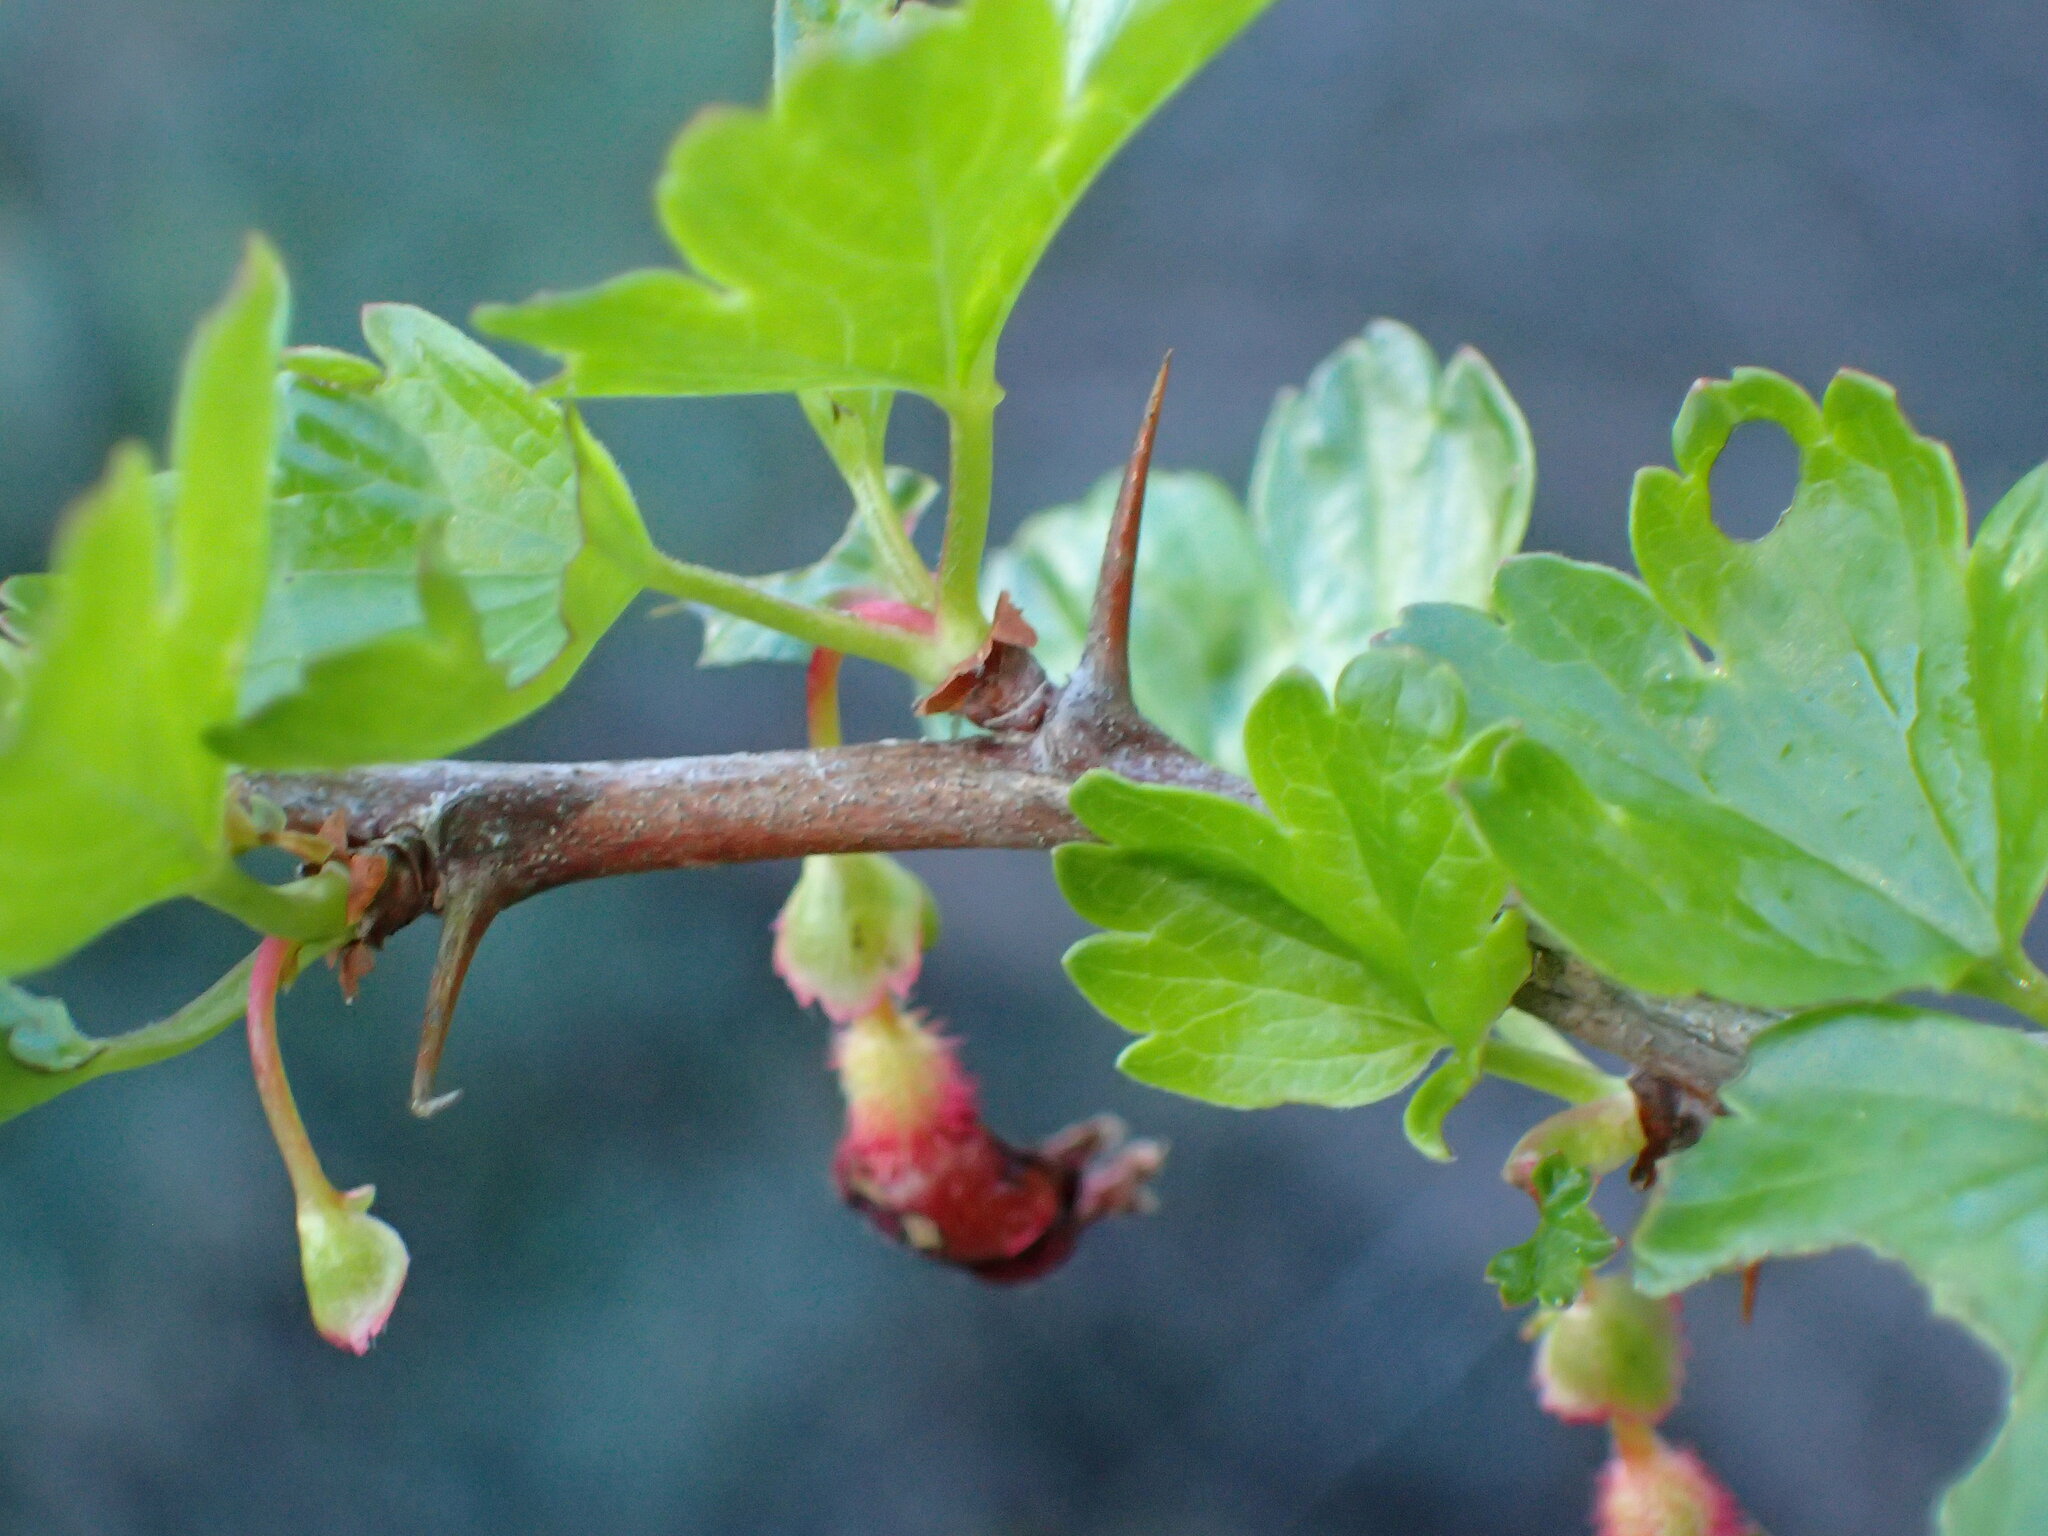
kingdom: Plantae
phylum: Tracheophyta
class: Magnoliopsida
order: Saxifragales
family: Grossulariaceae
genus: Ribes
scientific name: Ribes californicum
